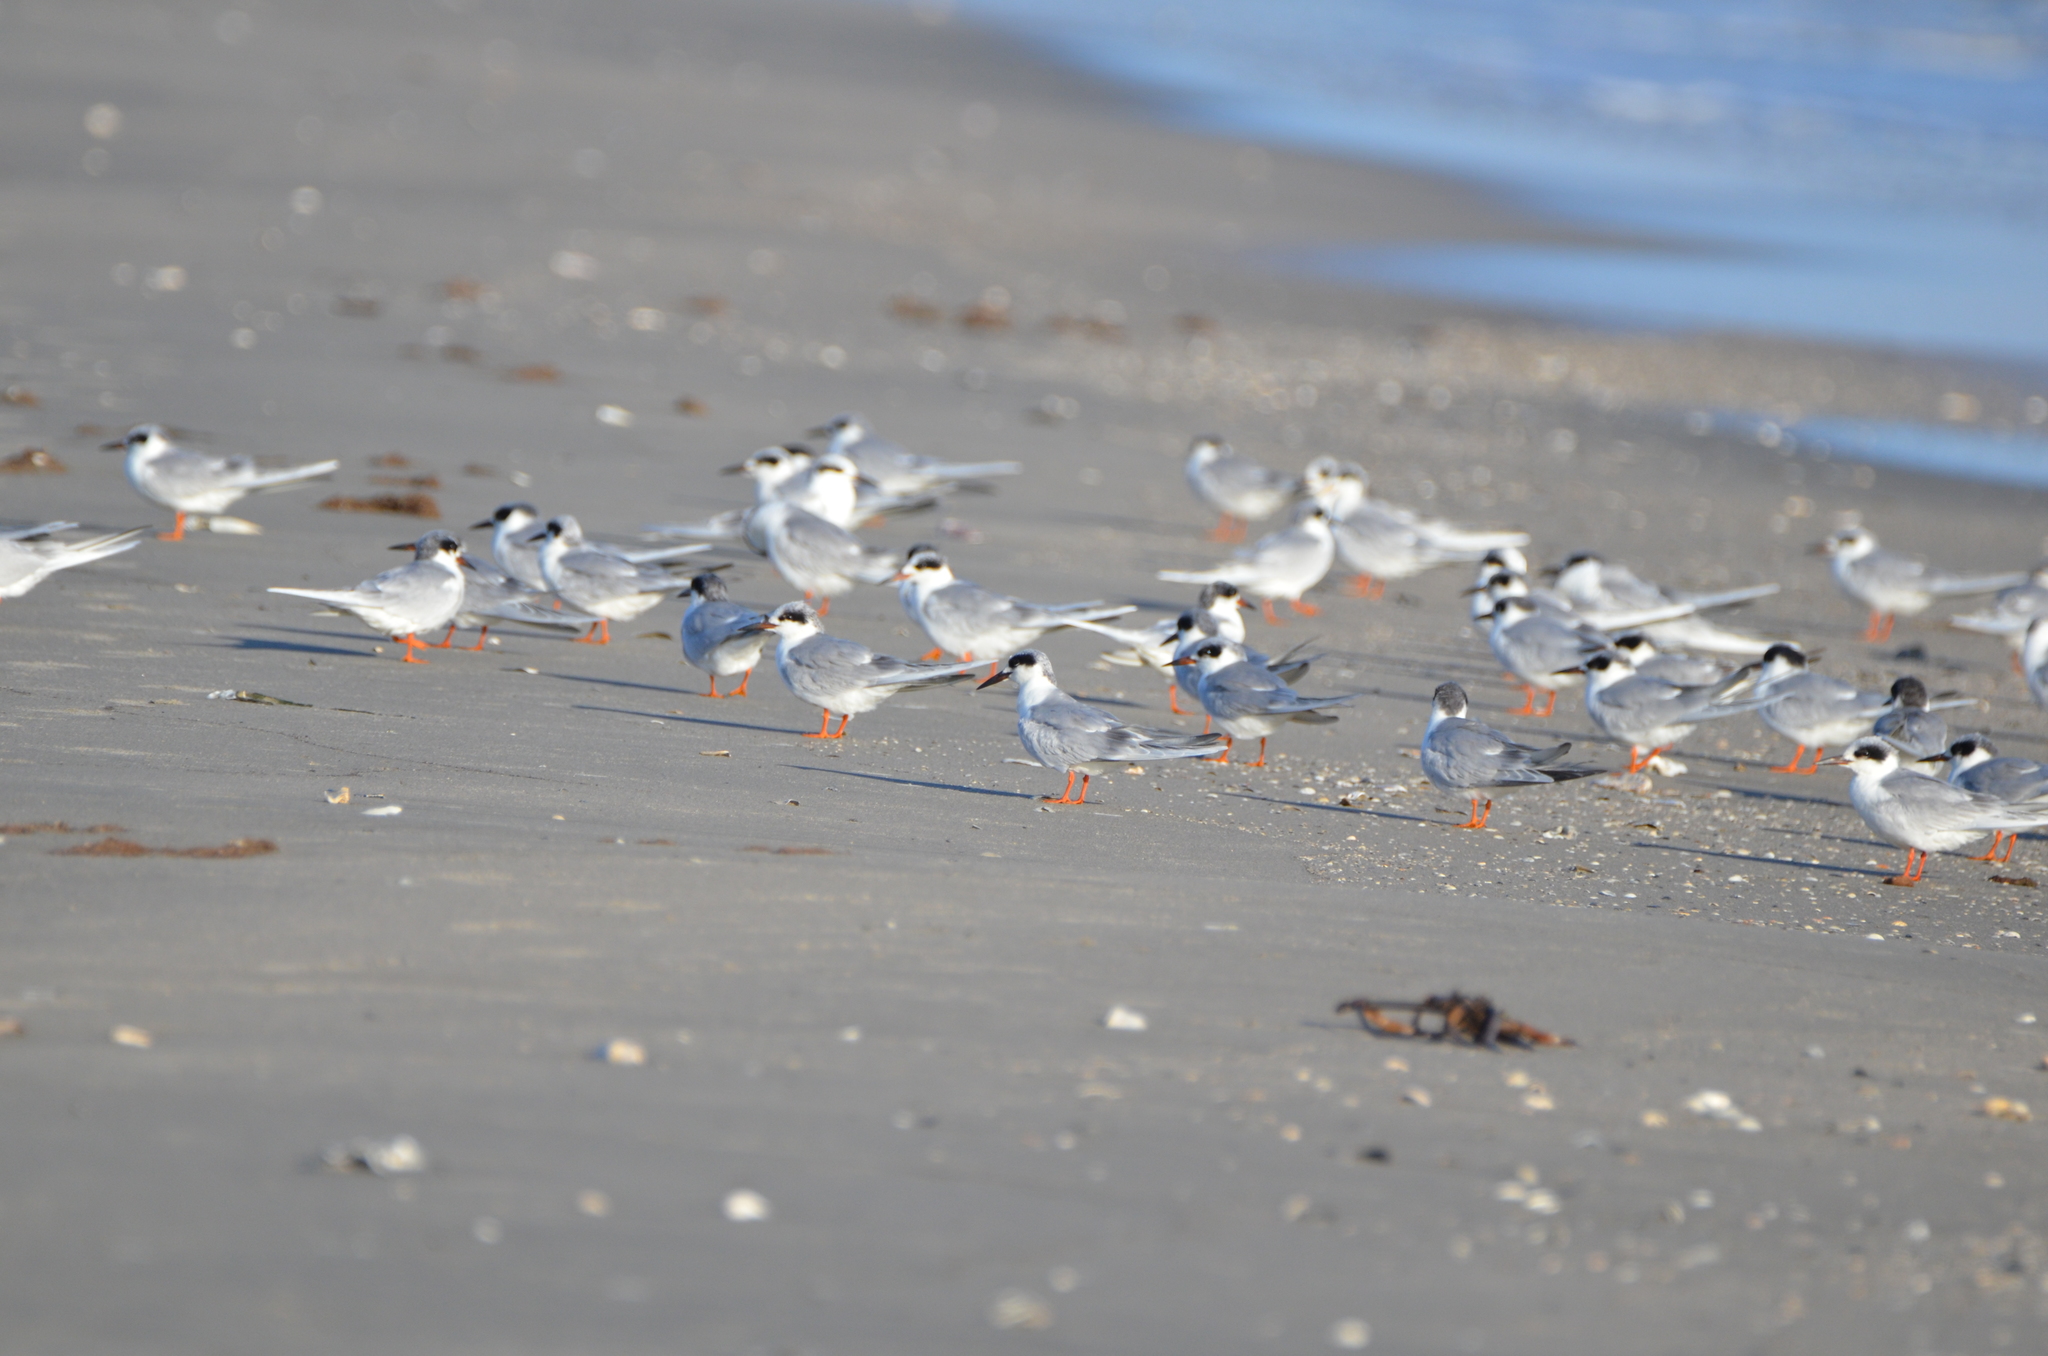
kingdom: Animalia
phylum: Chordata
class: Aves
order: Charadriiformes
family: Laridae
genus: Sterna
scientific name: Sterna forsteri
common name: Forster's tern
